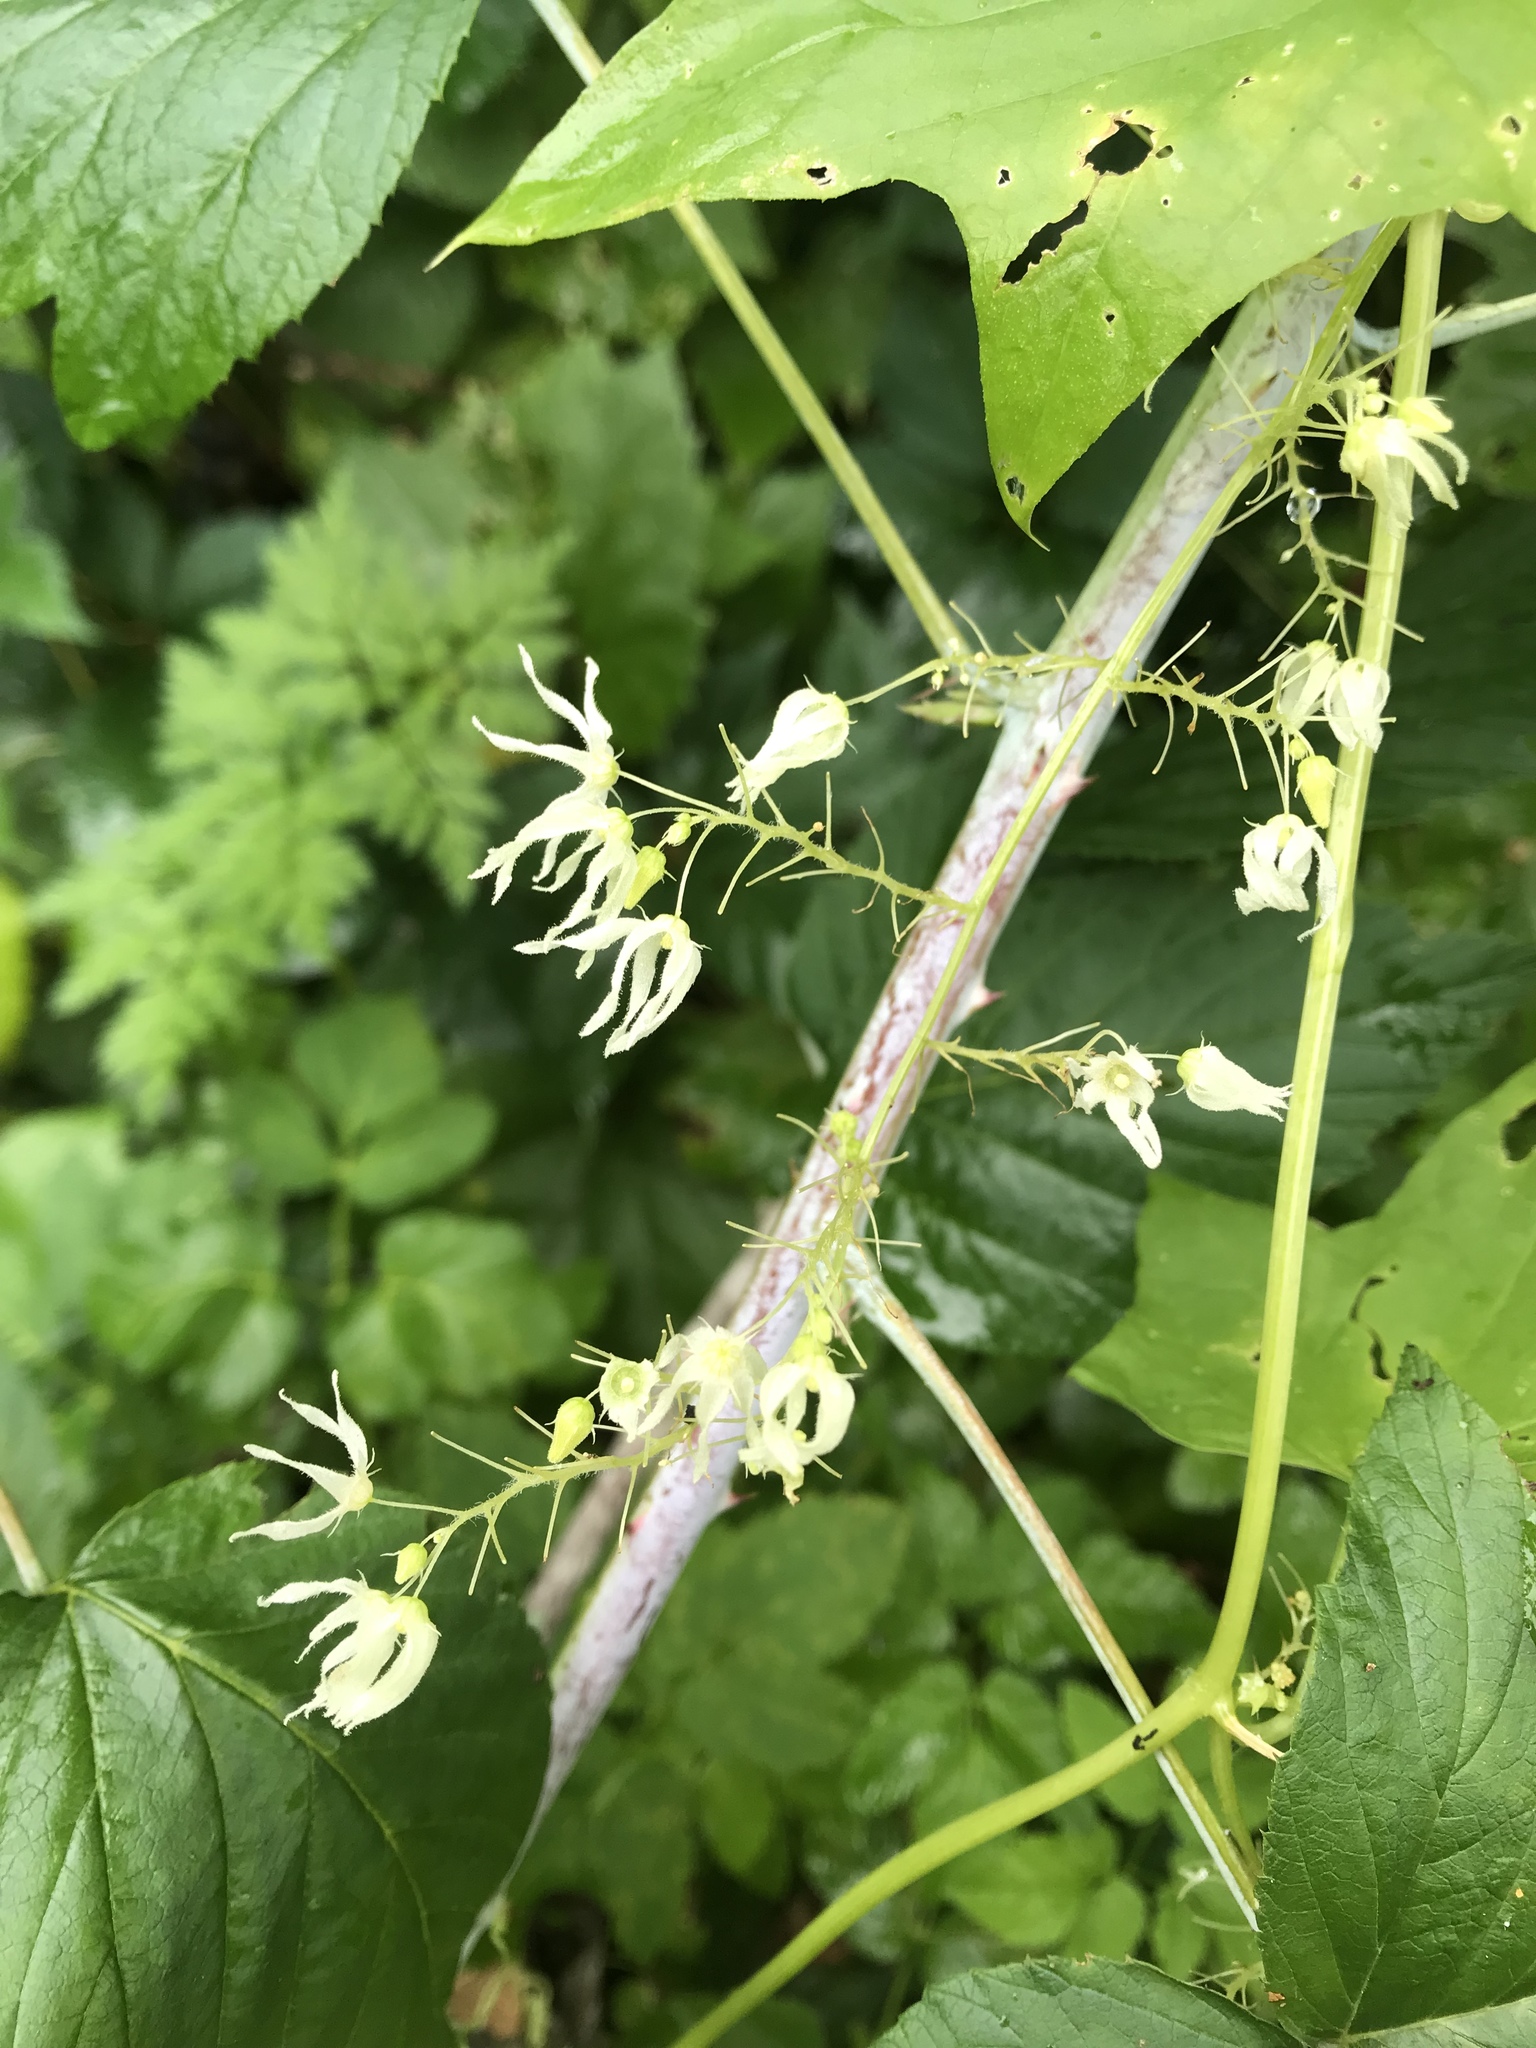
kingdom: Plantae
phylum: Tracheophyta
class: Magnoliopsida
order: Cucurbitales
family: Cucurbitaceae
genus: Echinocystis
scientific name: Echinocystis lobata
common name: Wild cucumber
